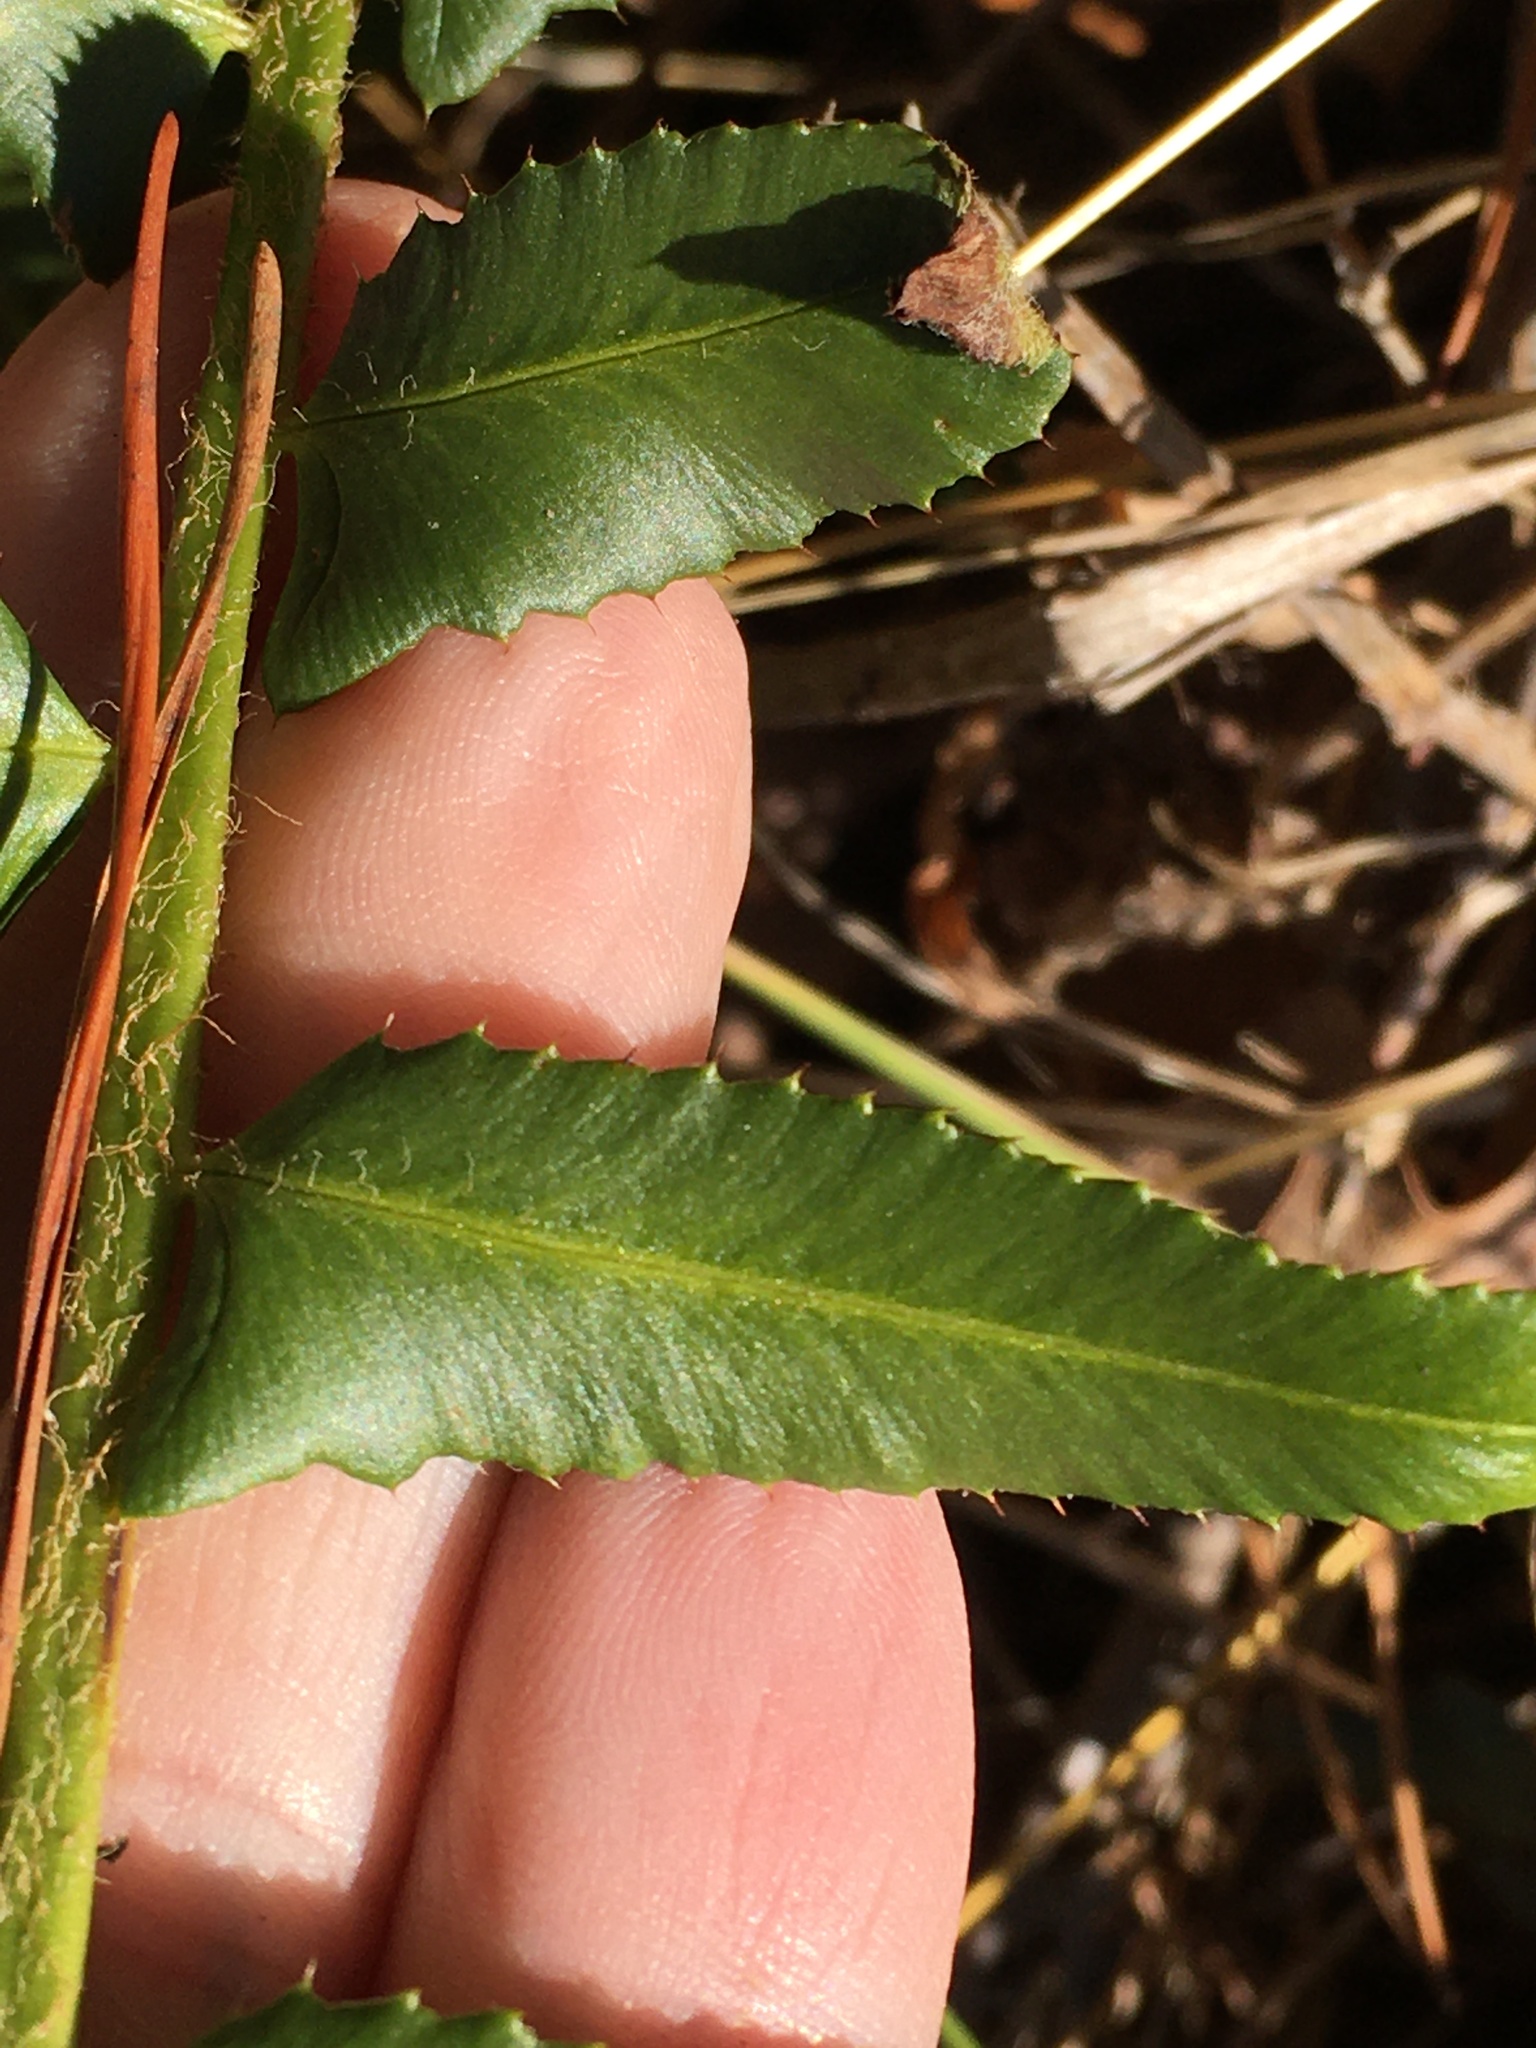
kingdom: Plantae
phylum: Tracheophyta
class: Polypodiopsida
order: Polypodiales
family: Dryopteridaceae
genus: Polystichum
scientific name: Polystichum acrostichoides
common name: Christmas fern
